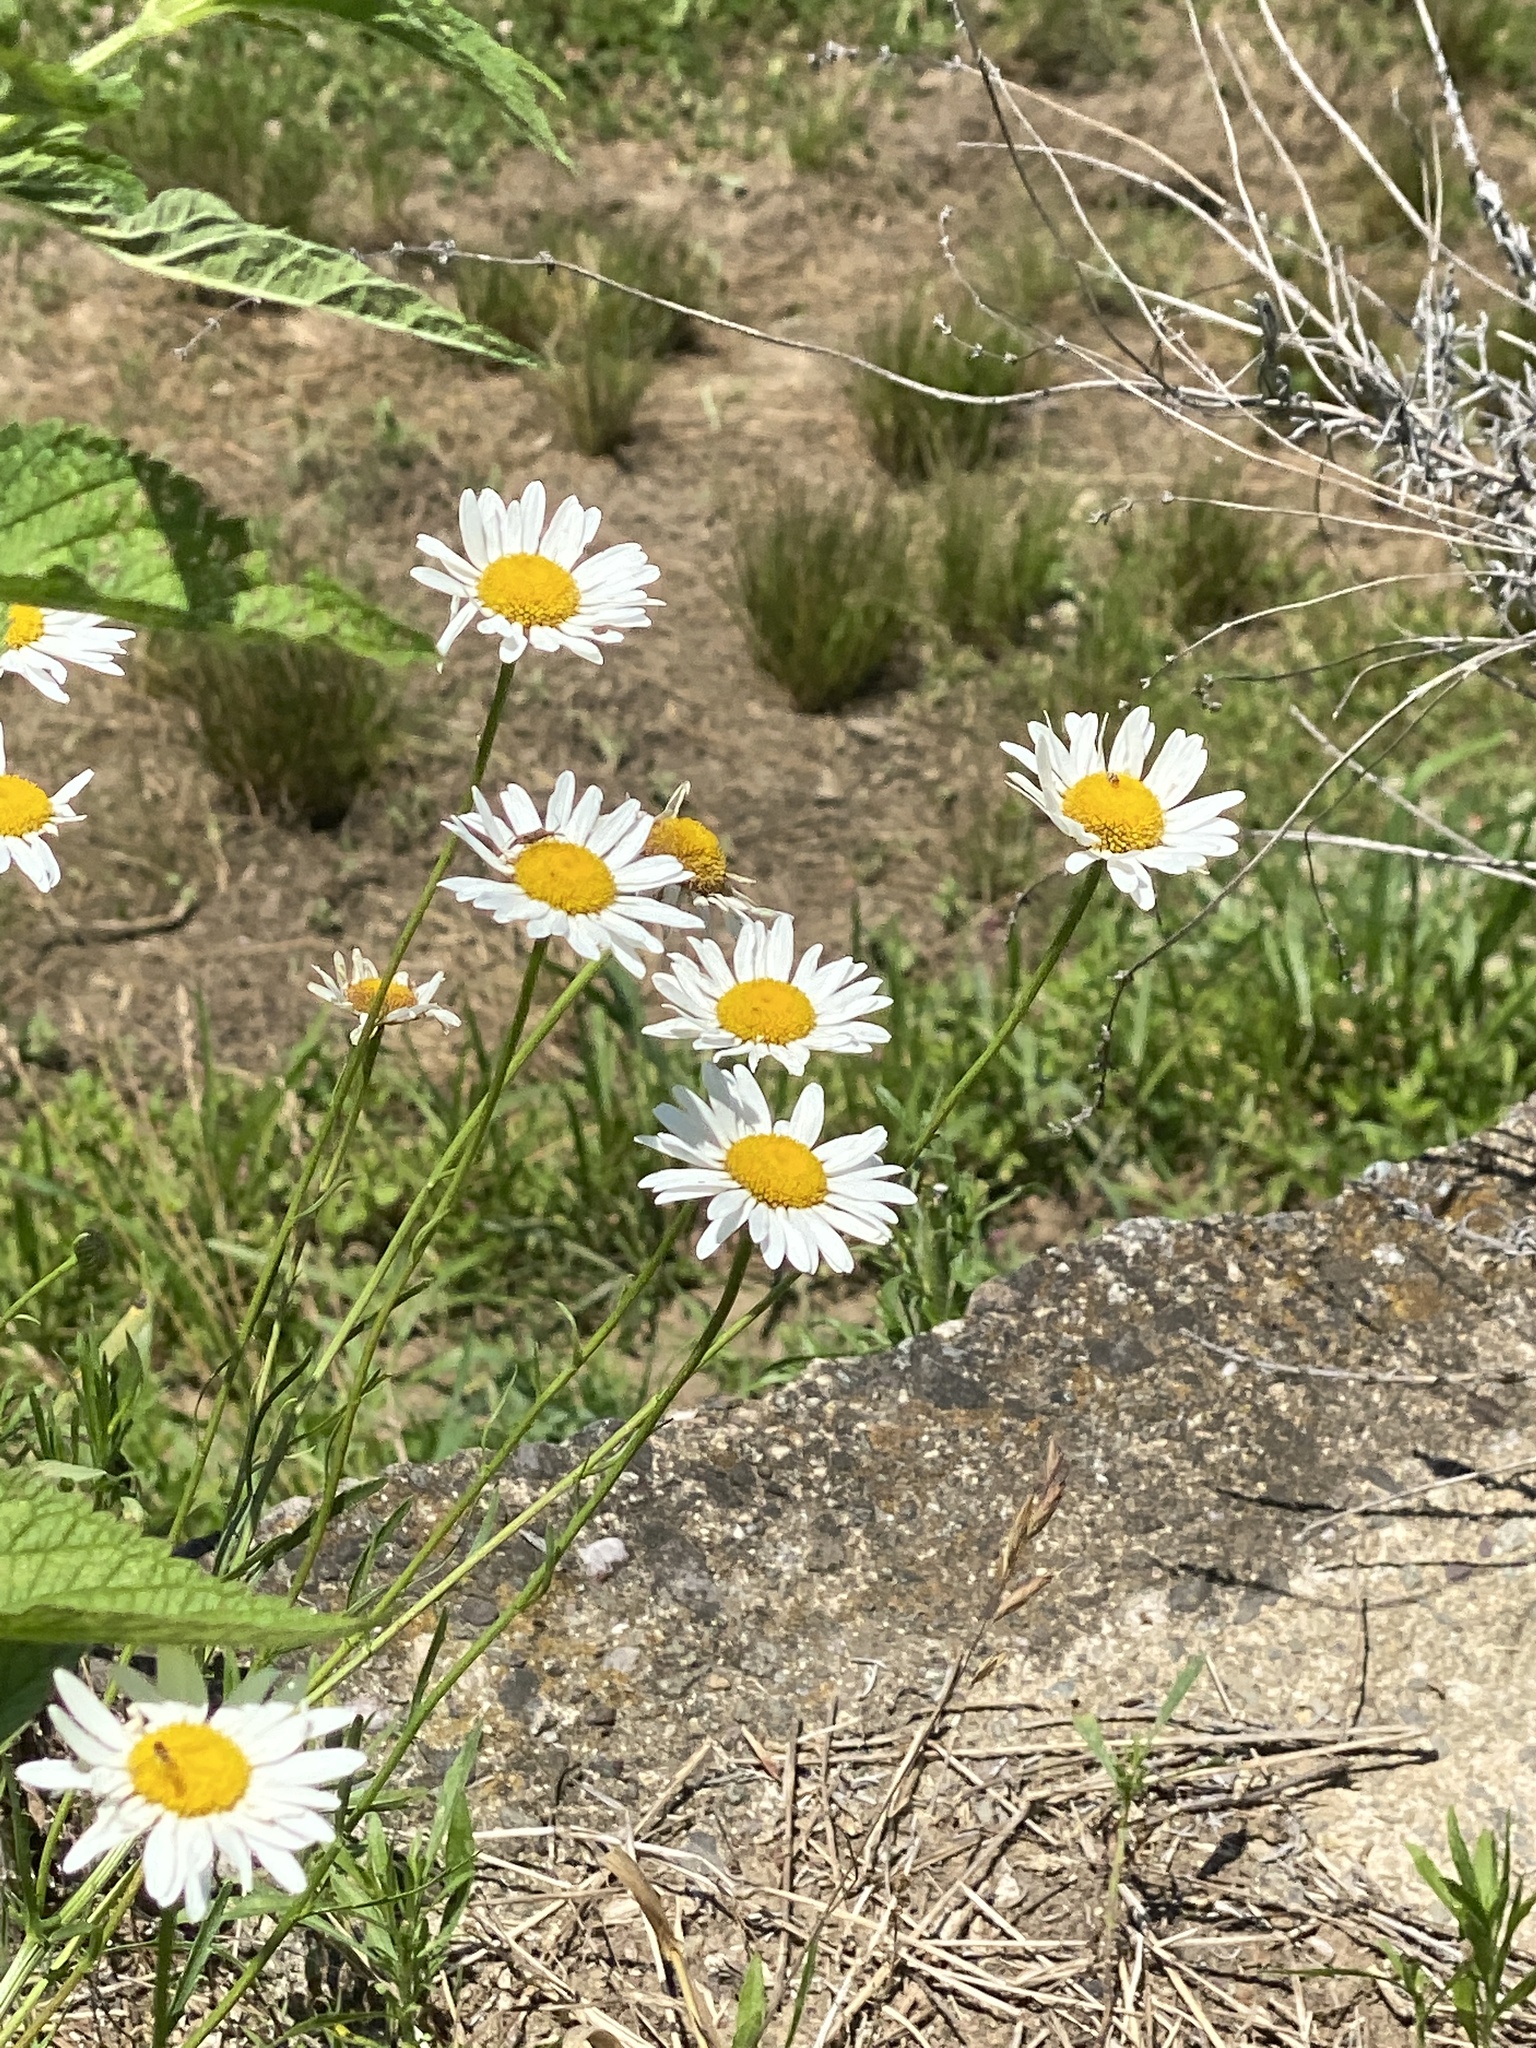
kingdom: Plantae
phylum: Tracheophyta
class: Magnoliopsida
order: Asterales
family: Asteraceae
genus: Leucanthemum
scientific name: Leucanthemum vulgare
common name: Oxeye daisy
